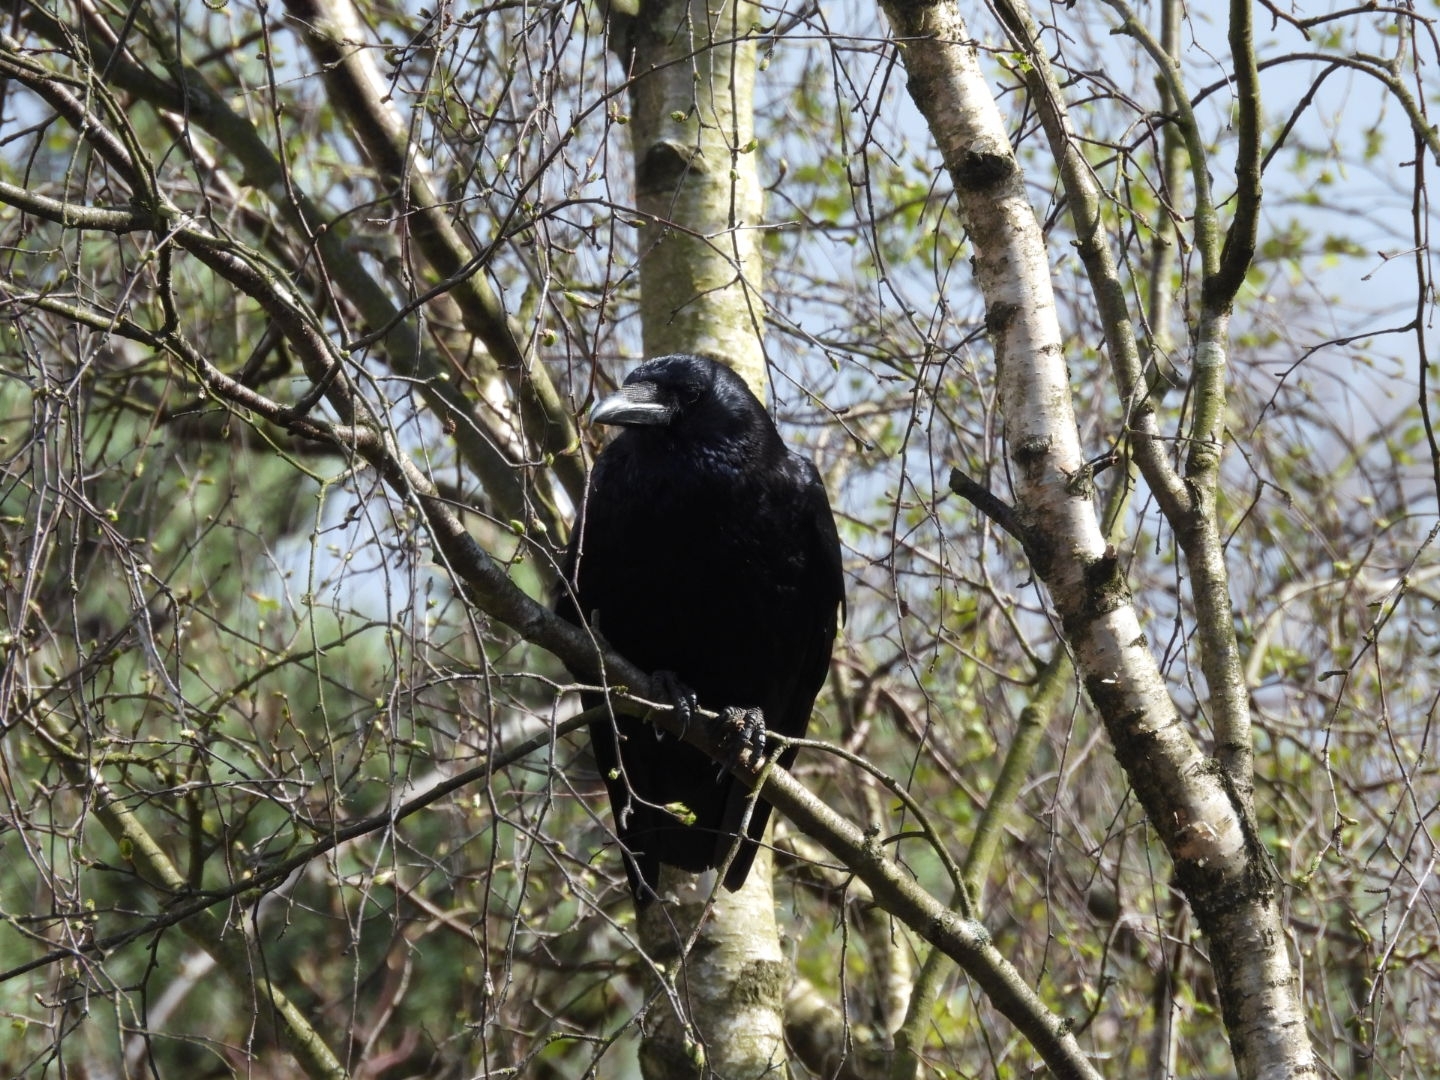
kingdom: Animalia
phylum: Chordata
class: Aves
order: Passeriformes
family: Corvidae
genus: Corvus
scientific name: Corvus corone
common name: Carrion crow
